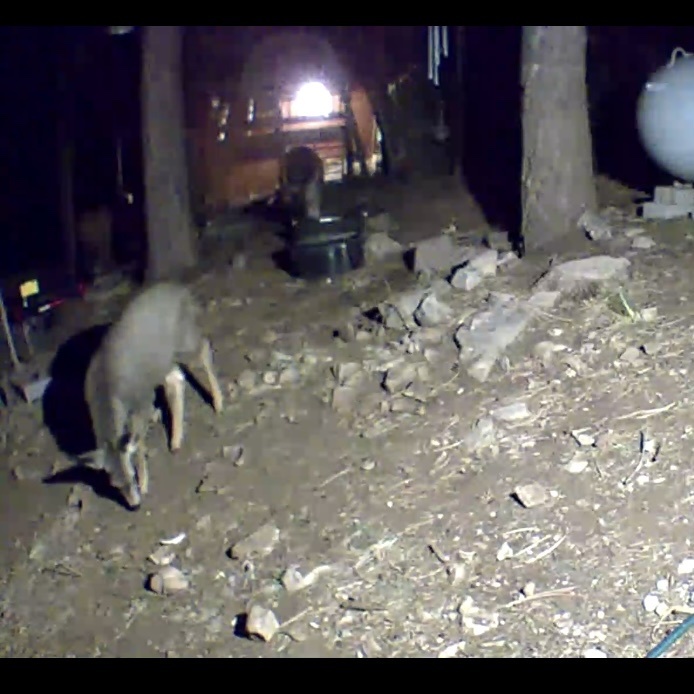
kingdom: Animalia
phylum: Chordata
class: Mammalia
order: Artiodactyla
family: Cervidae
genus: Odocoileus
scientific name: Odocoileus hemionus
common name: Mule deer
